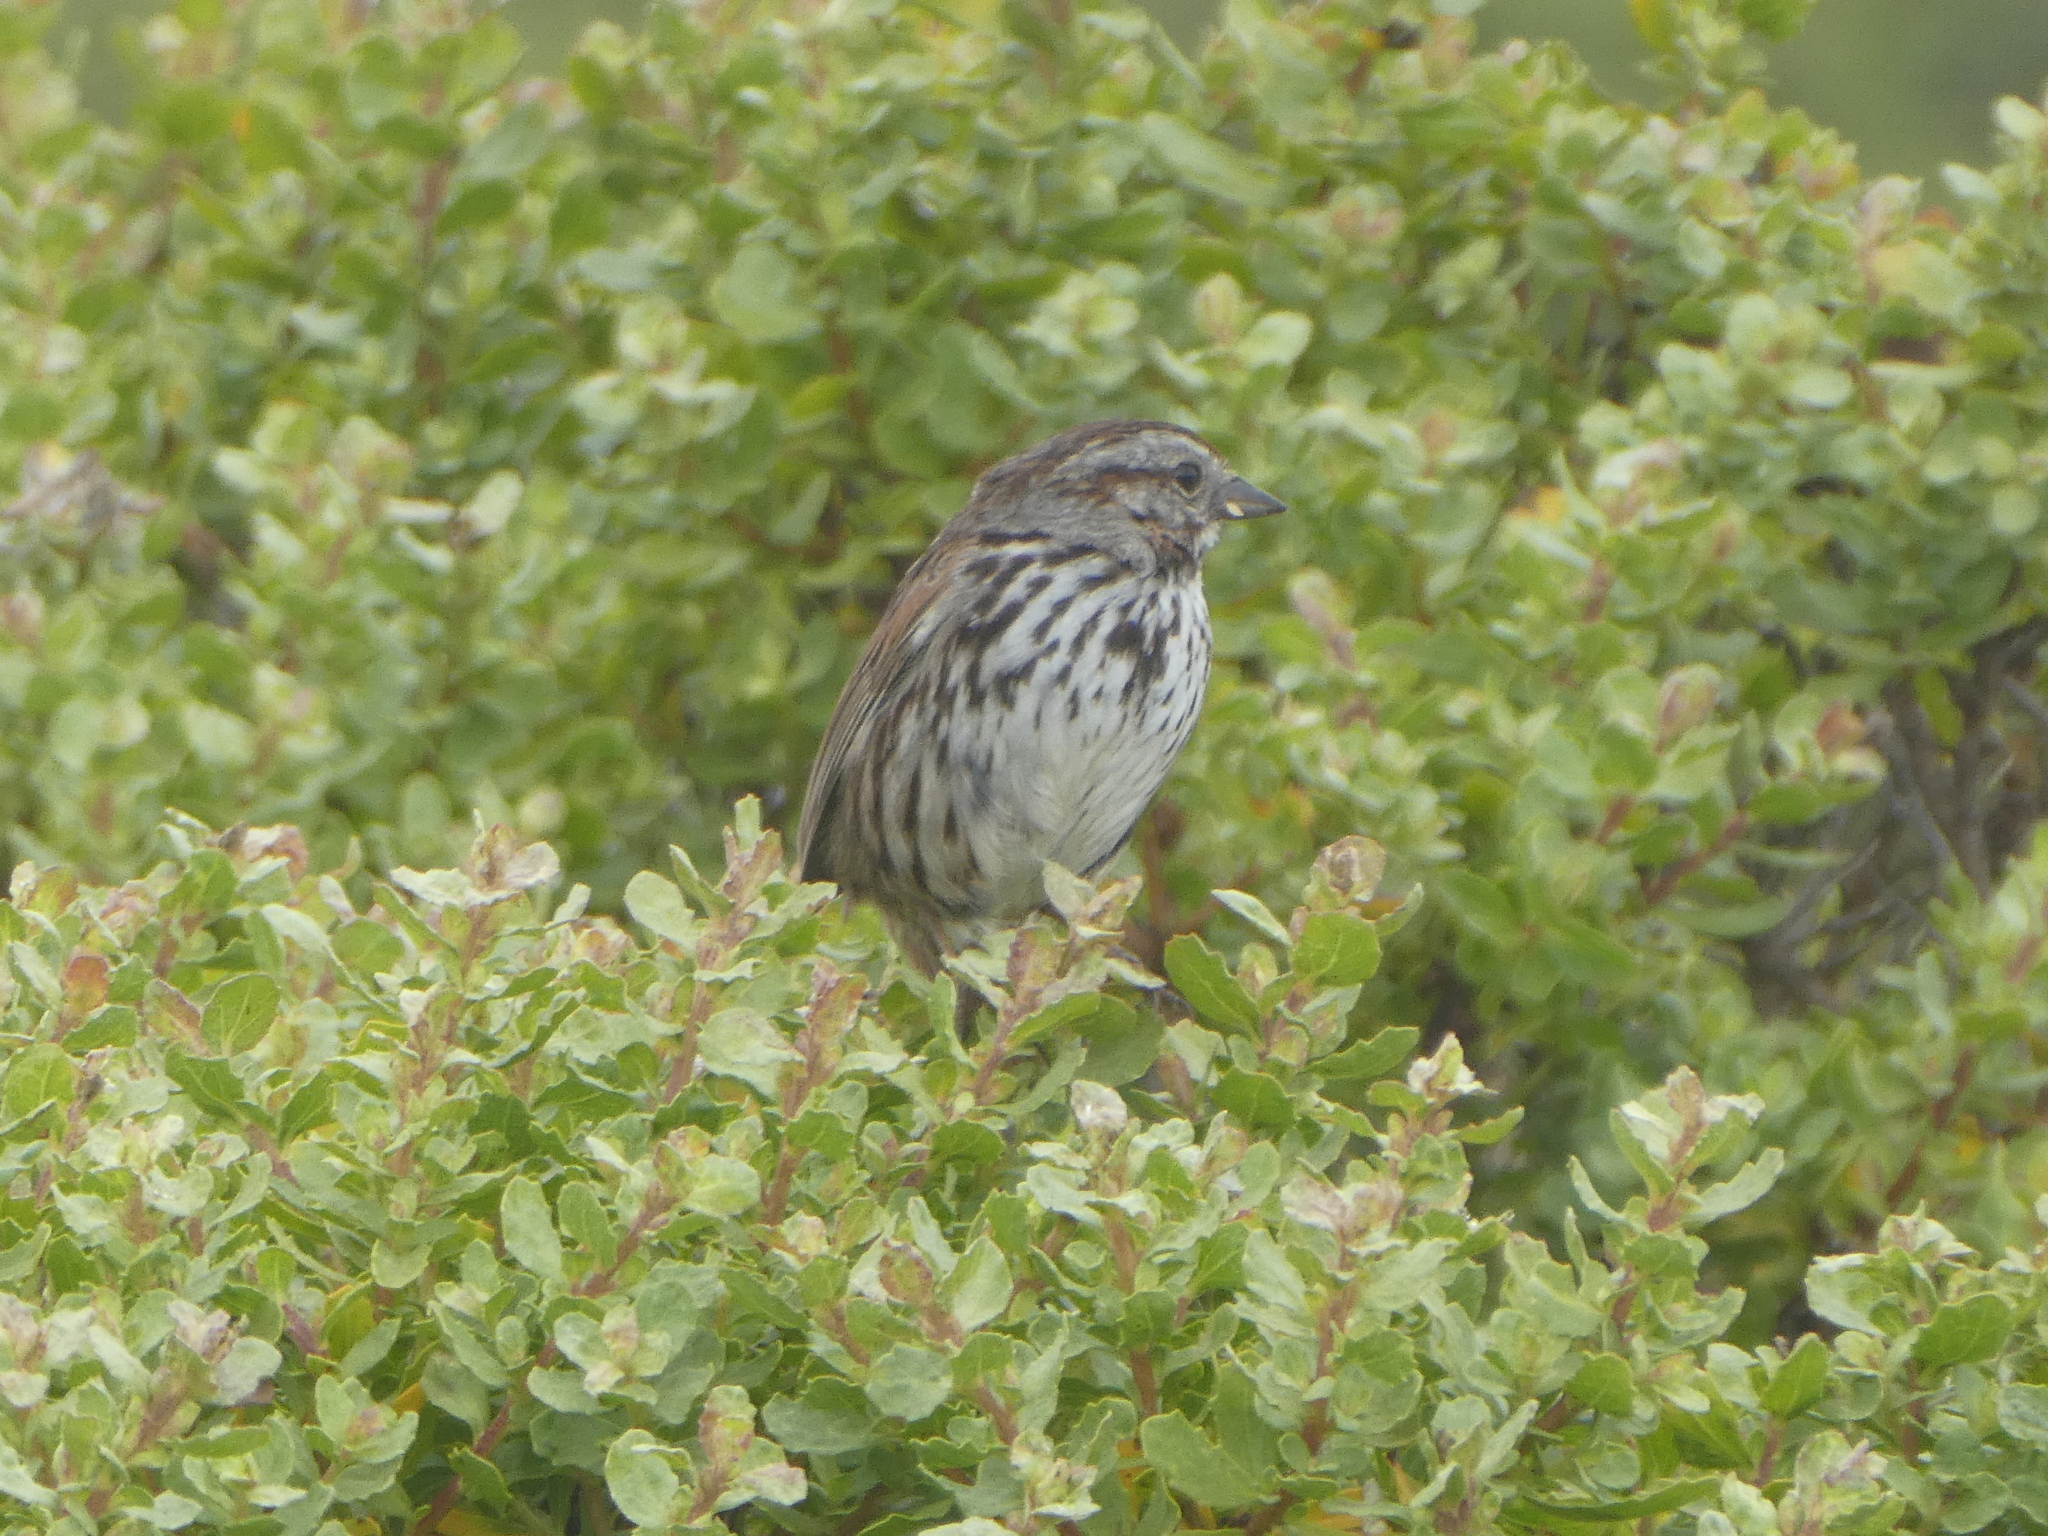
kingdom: Animalia
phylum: Chordata
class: Aves
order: Passeriformes
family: Passerellidae
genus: Melospiza
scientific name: Melospiza melodia
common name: Song sparrow
